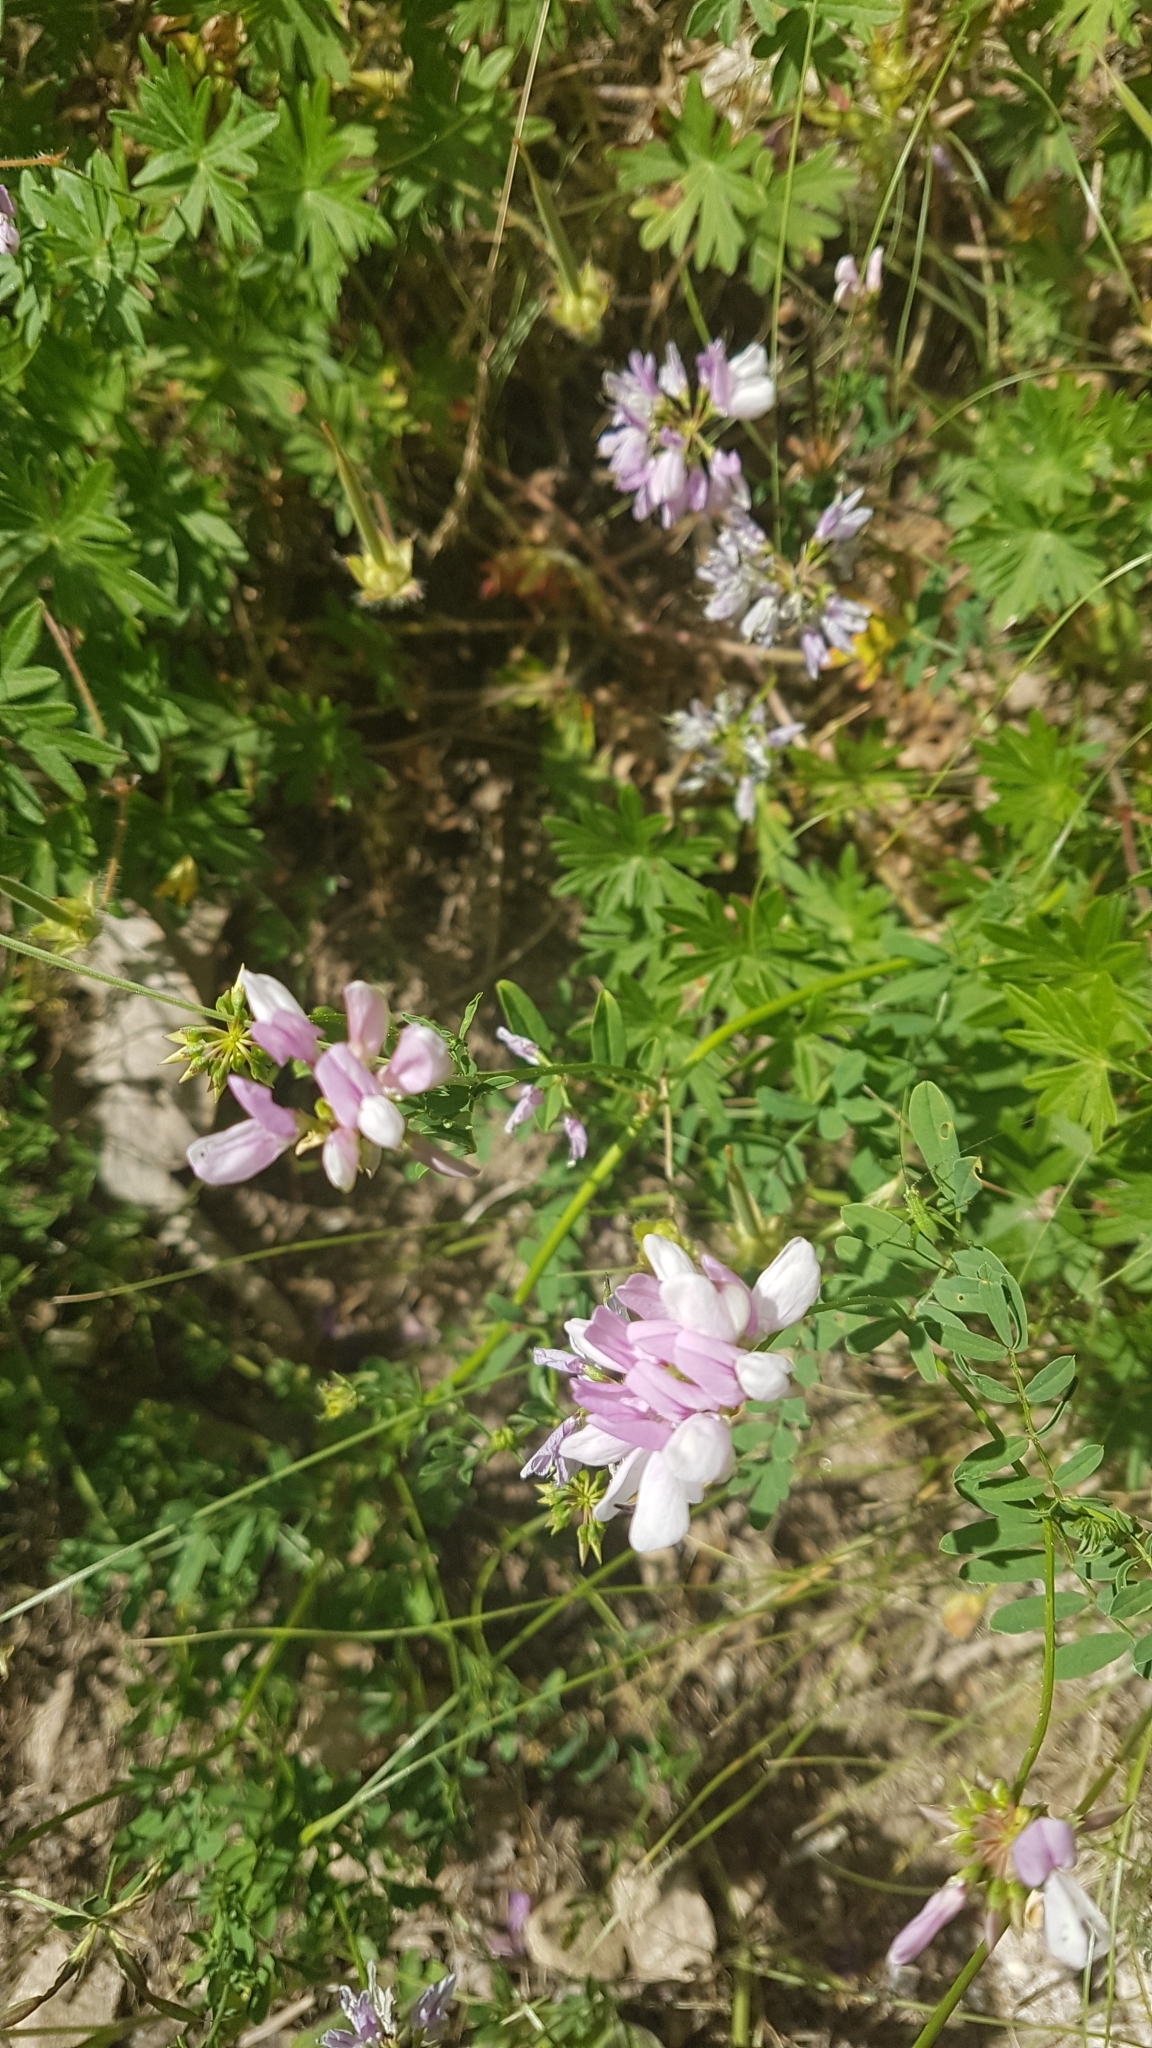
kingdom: Plantae
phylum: Tracheophyta
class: Magnoliopsida
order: Fabales
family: Fabaceae
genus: Coronilla
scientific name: Coronilla varia
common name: Crownvetch
